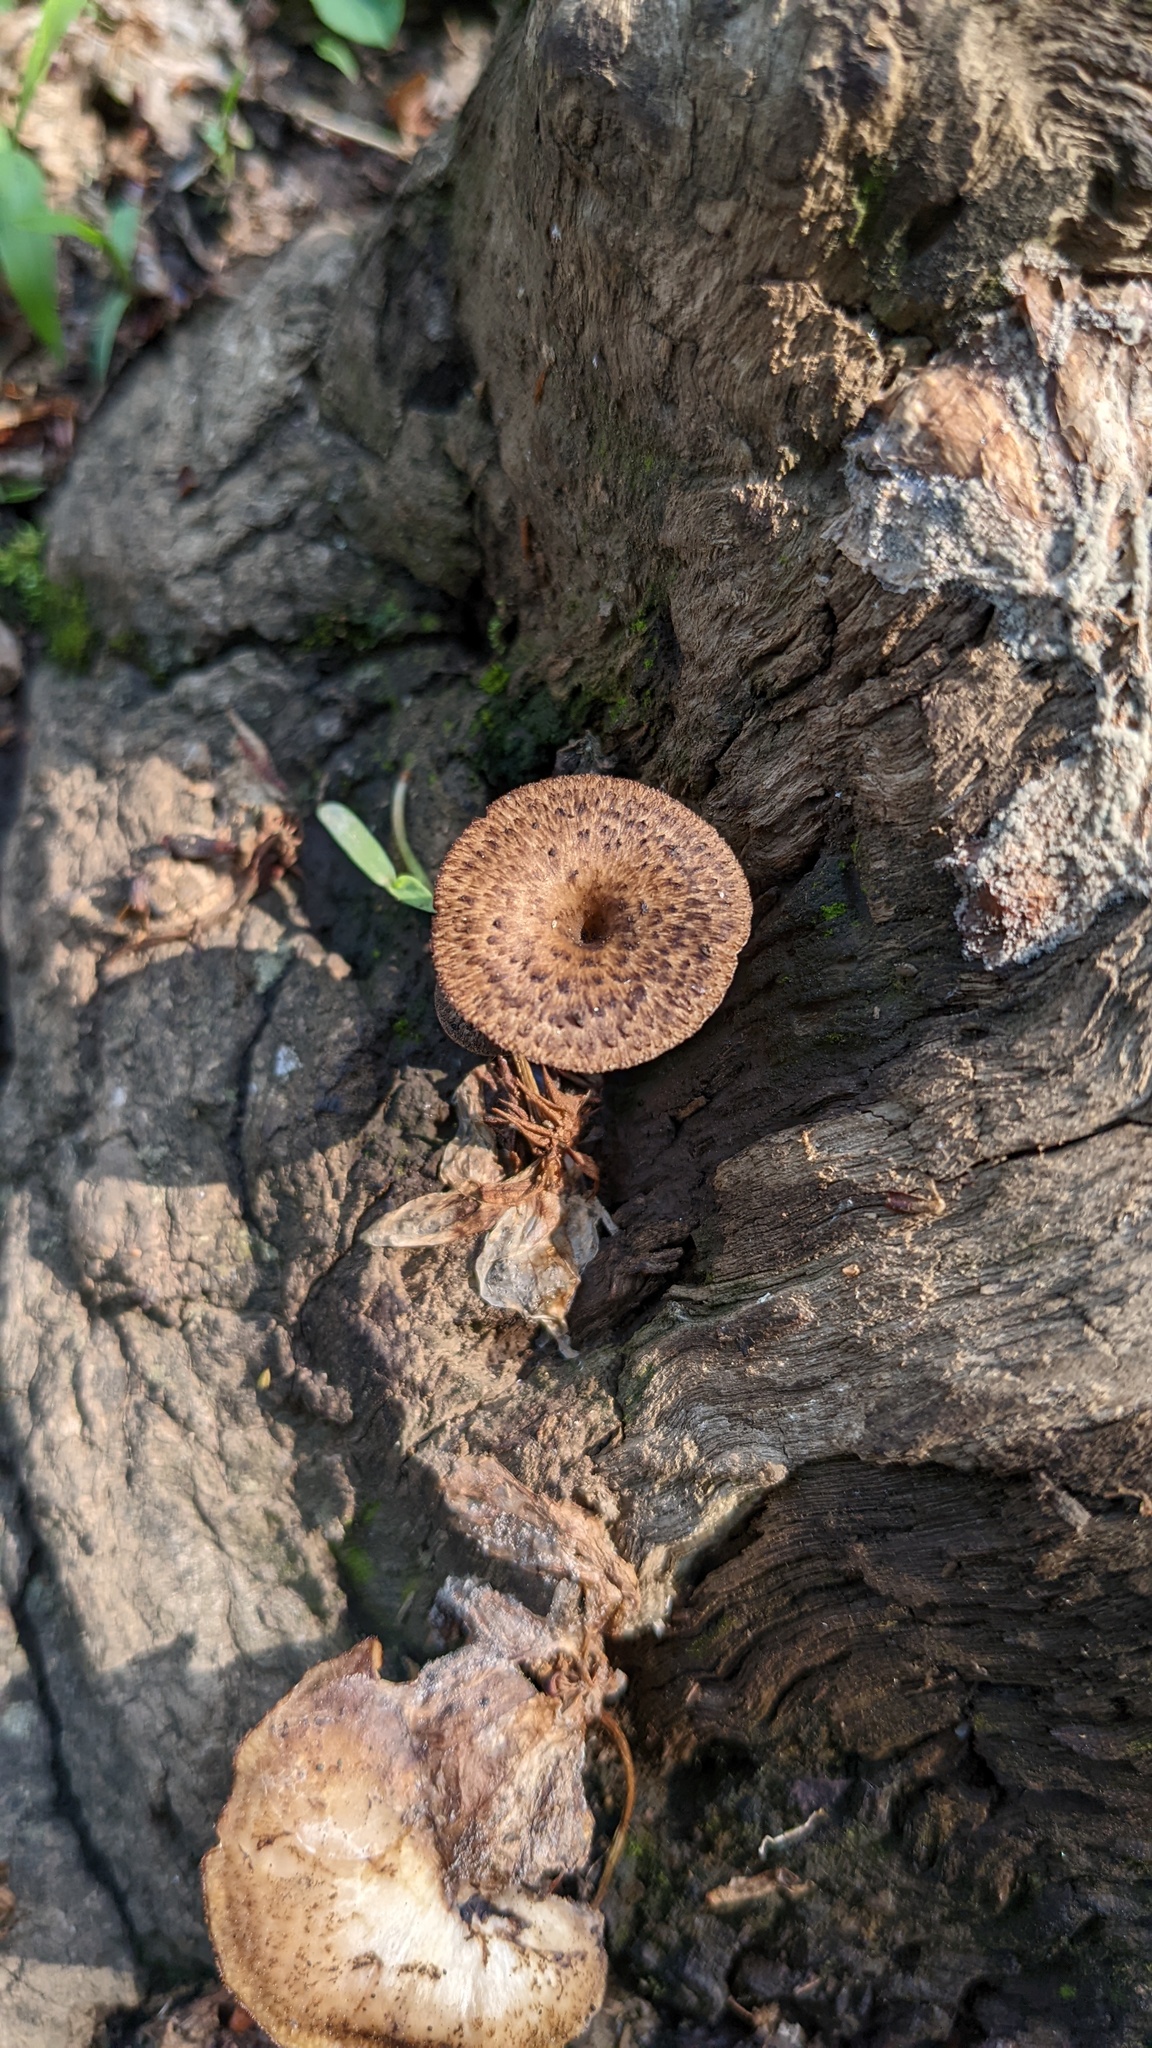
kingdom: Fungi
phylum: Basidiomycota
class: Agaricomycetes
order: Polyporales
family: Polyporaceae
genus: Lentinus
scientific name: Lentinus arcularius
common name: Spring polypore
